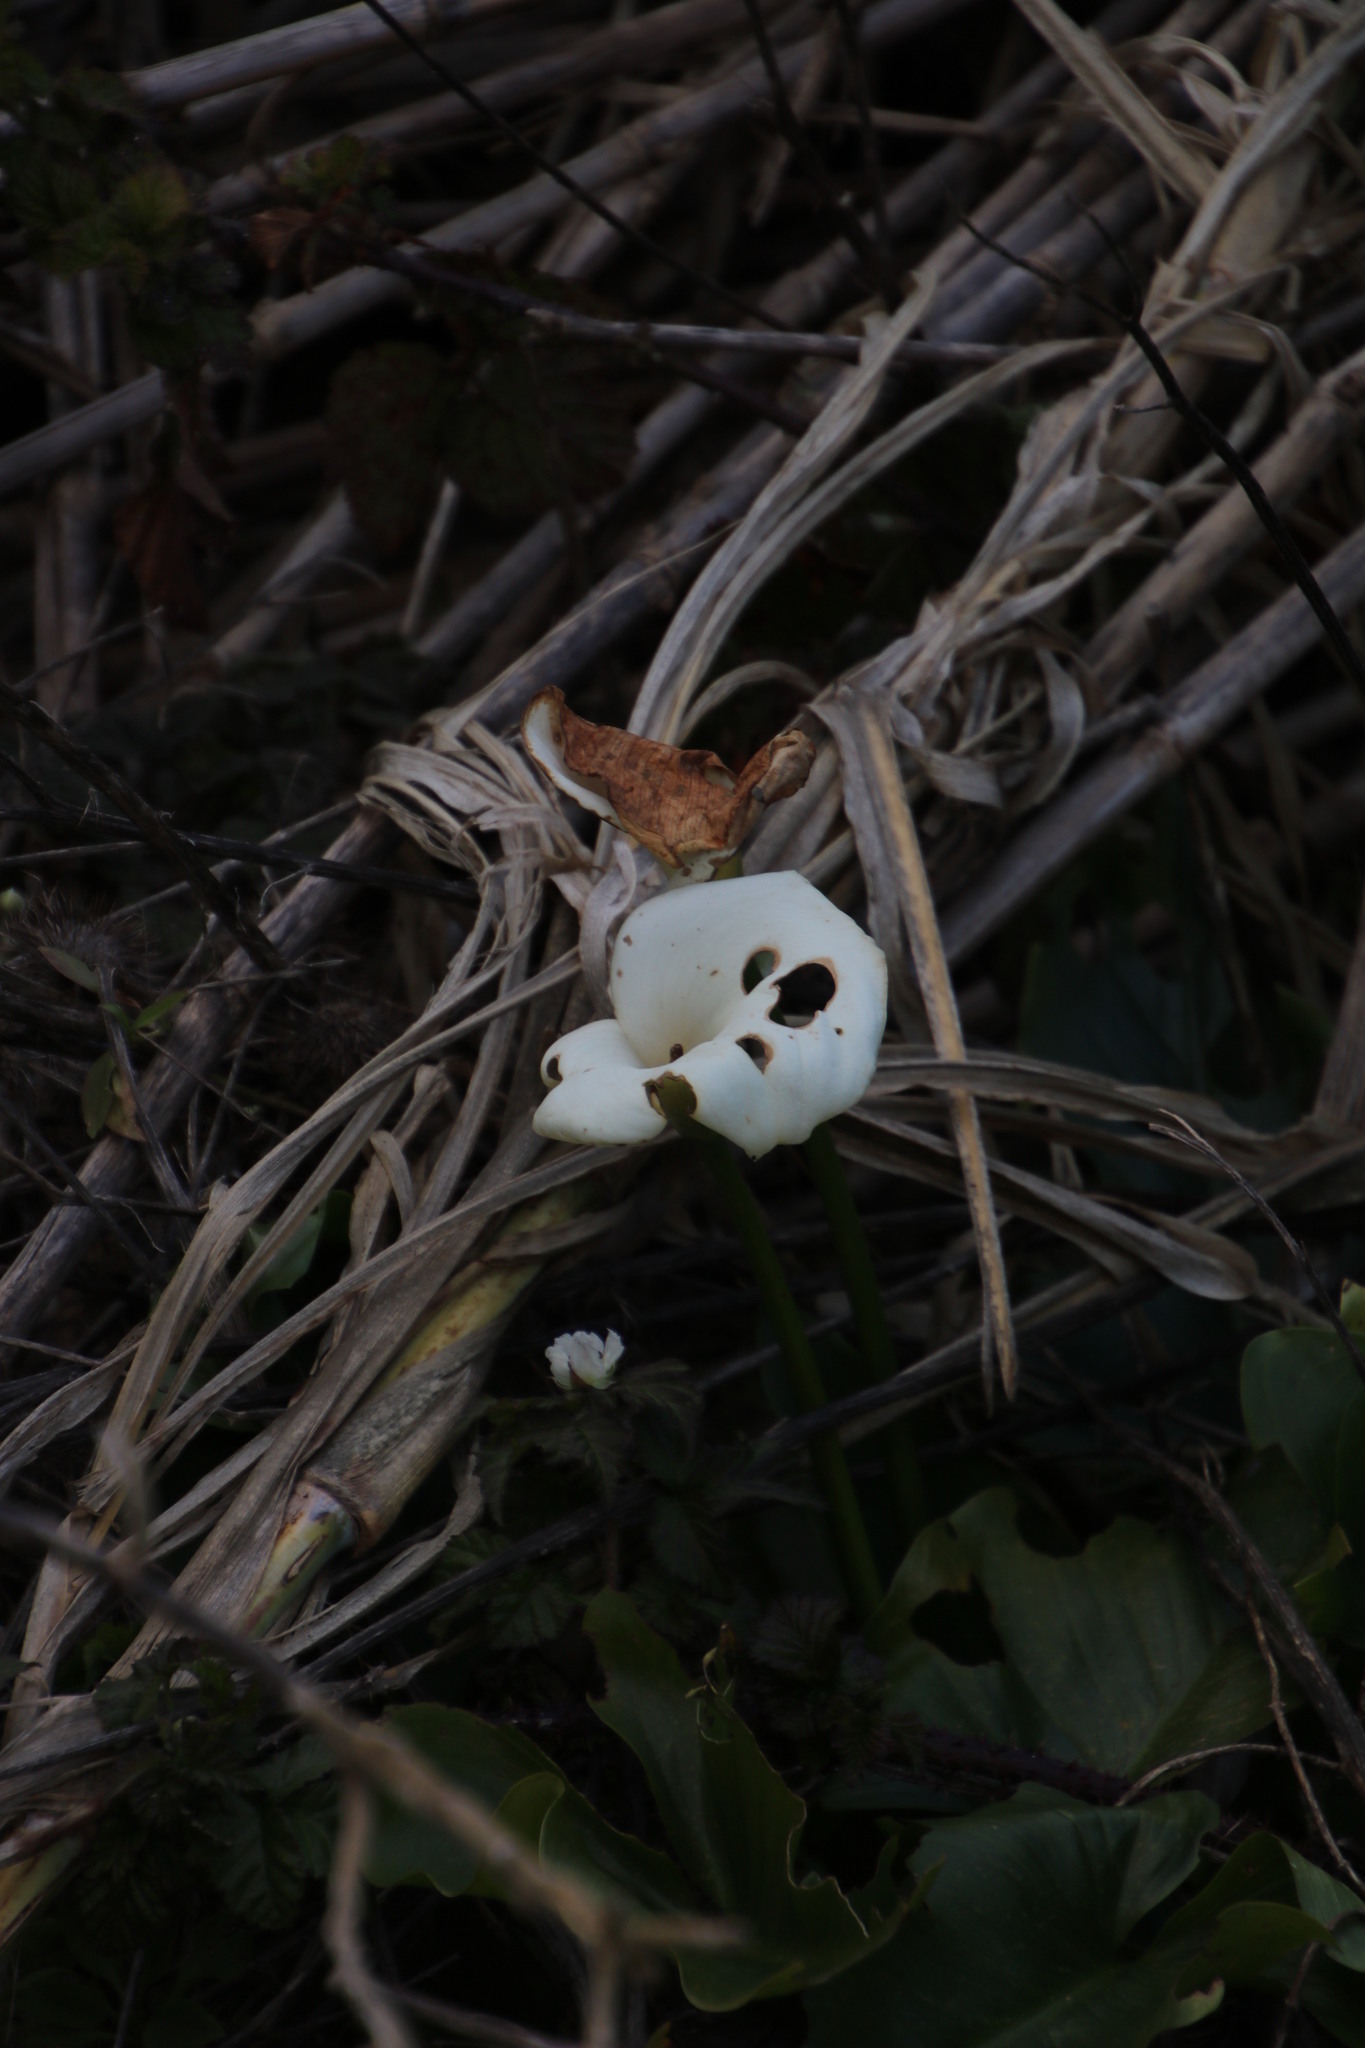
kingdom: Plantae
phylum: Tracheophyta
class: Liliopsida
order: Alismatales
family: Araceae
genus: Zantedeschia
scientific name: Zantedeschia aethiopica
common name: Altar-lily
